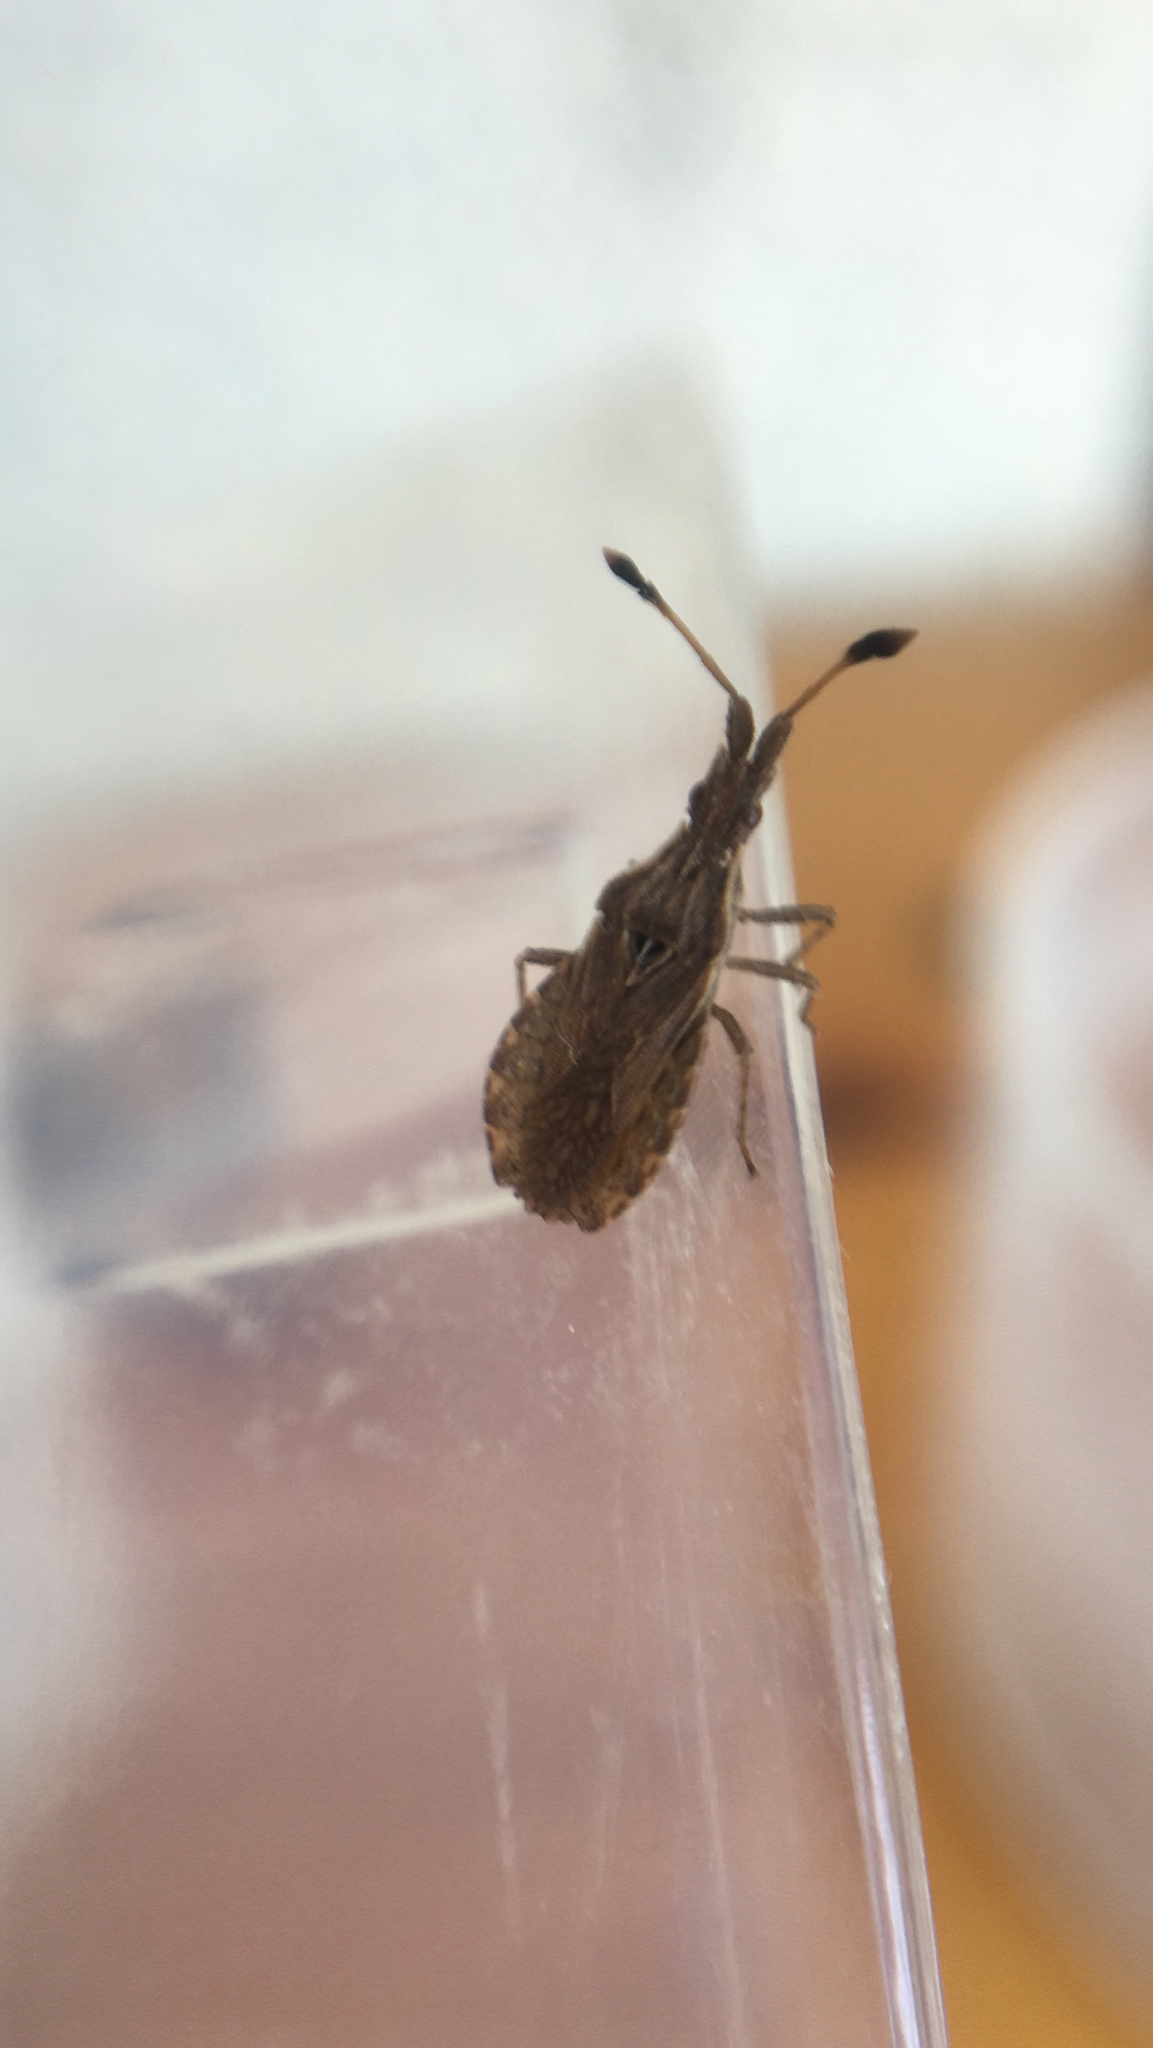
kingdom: Animalia
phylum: Arthropoda
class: Insecta
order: Hemiptera
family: Coreidae
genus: Spathocera
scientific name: Spathocera lobata
